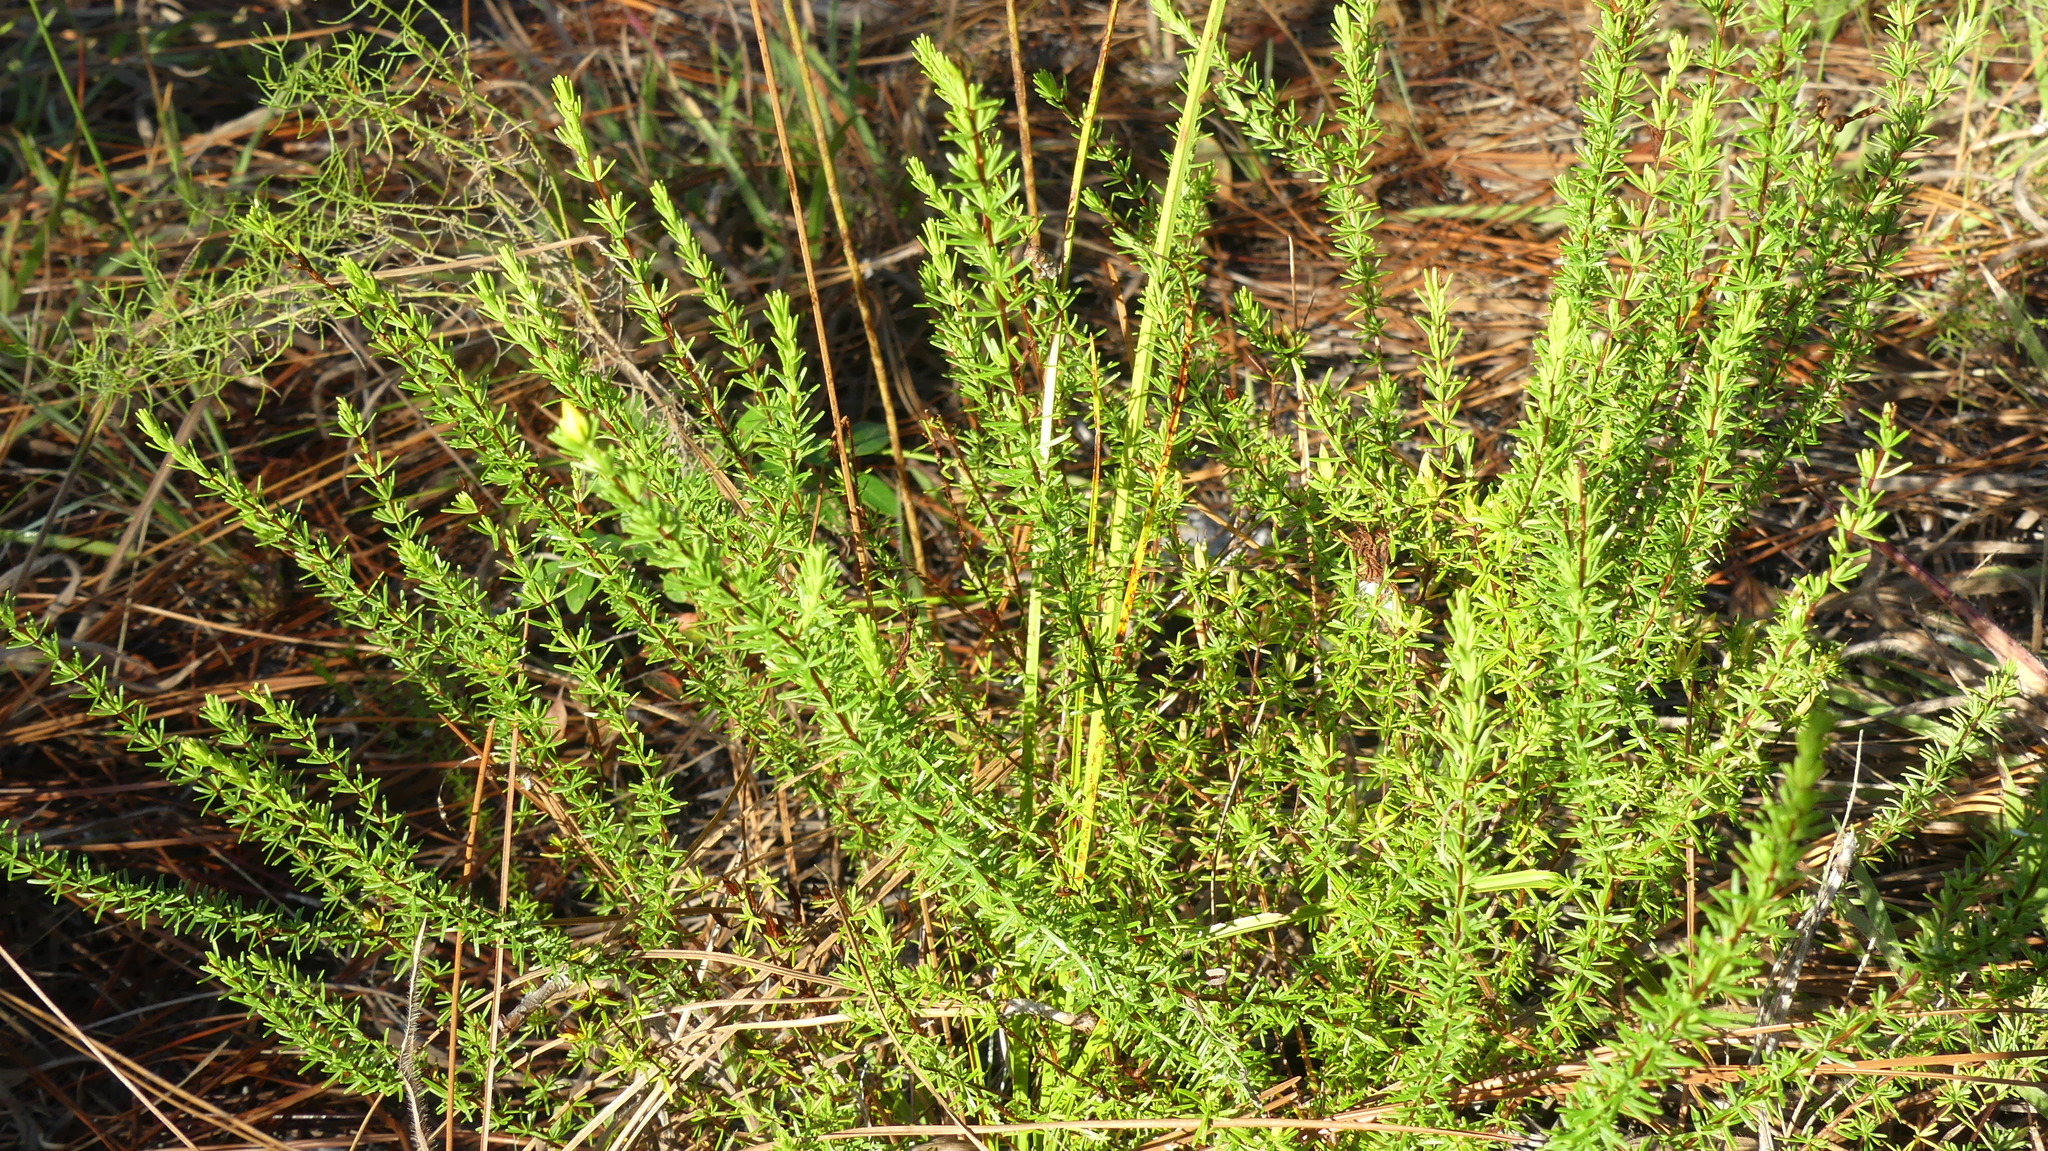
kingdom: Plantae
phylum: Tracheophyta
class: Magnoliopsida
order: Malpighiales
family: Hypericaceae
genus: Hypericum
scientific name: Hypericum tenuifolium
